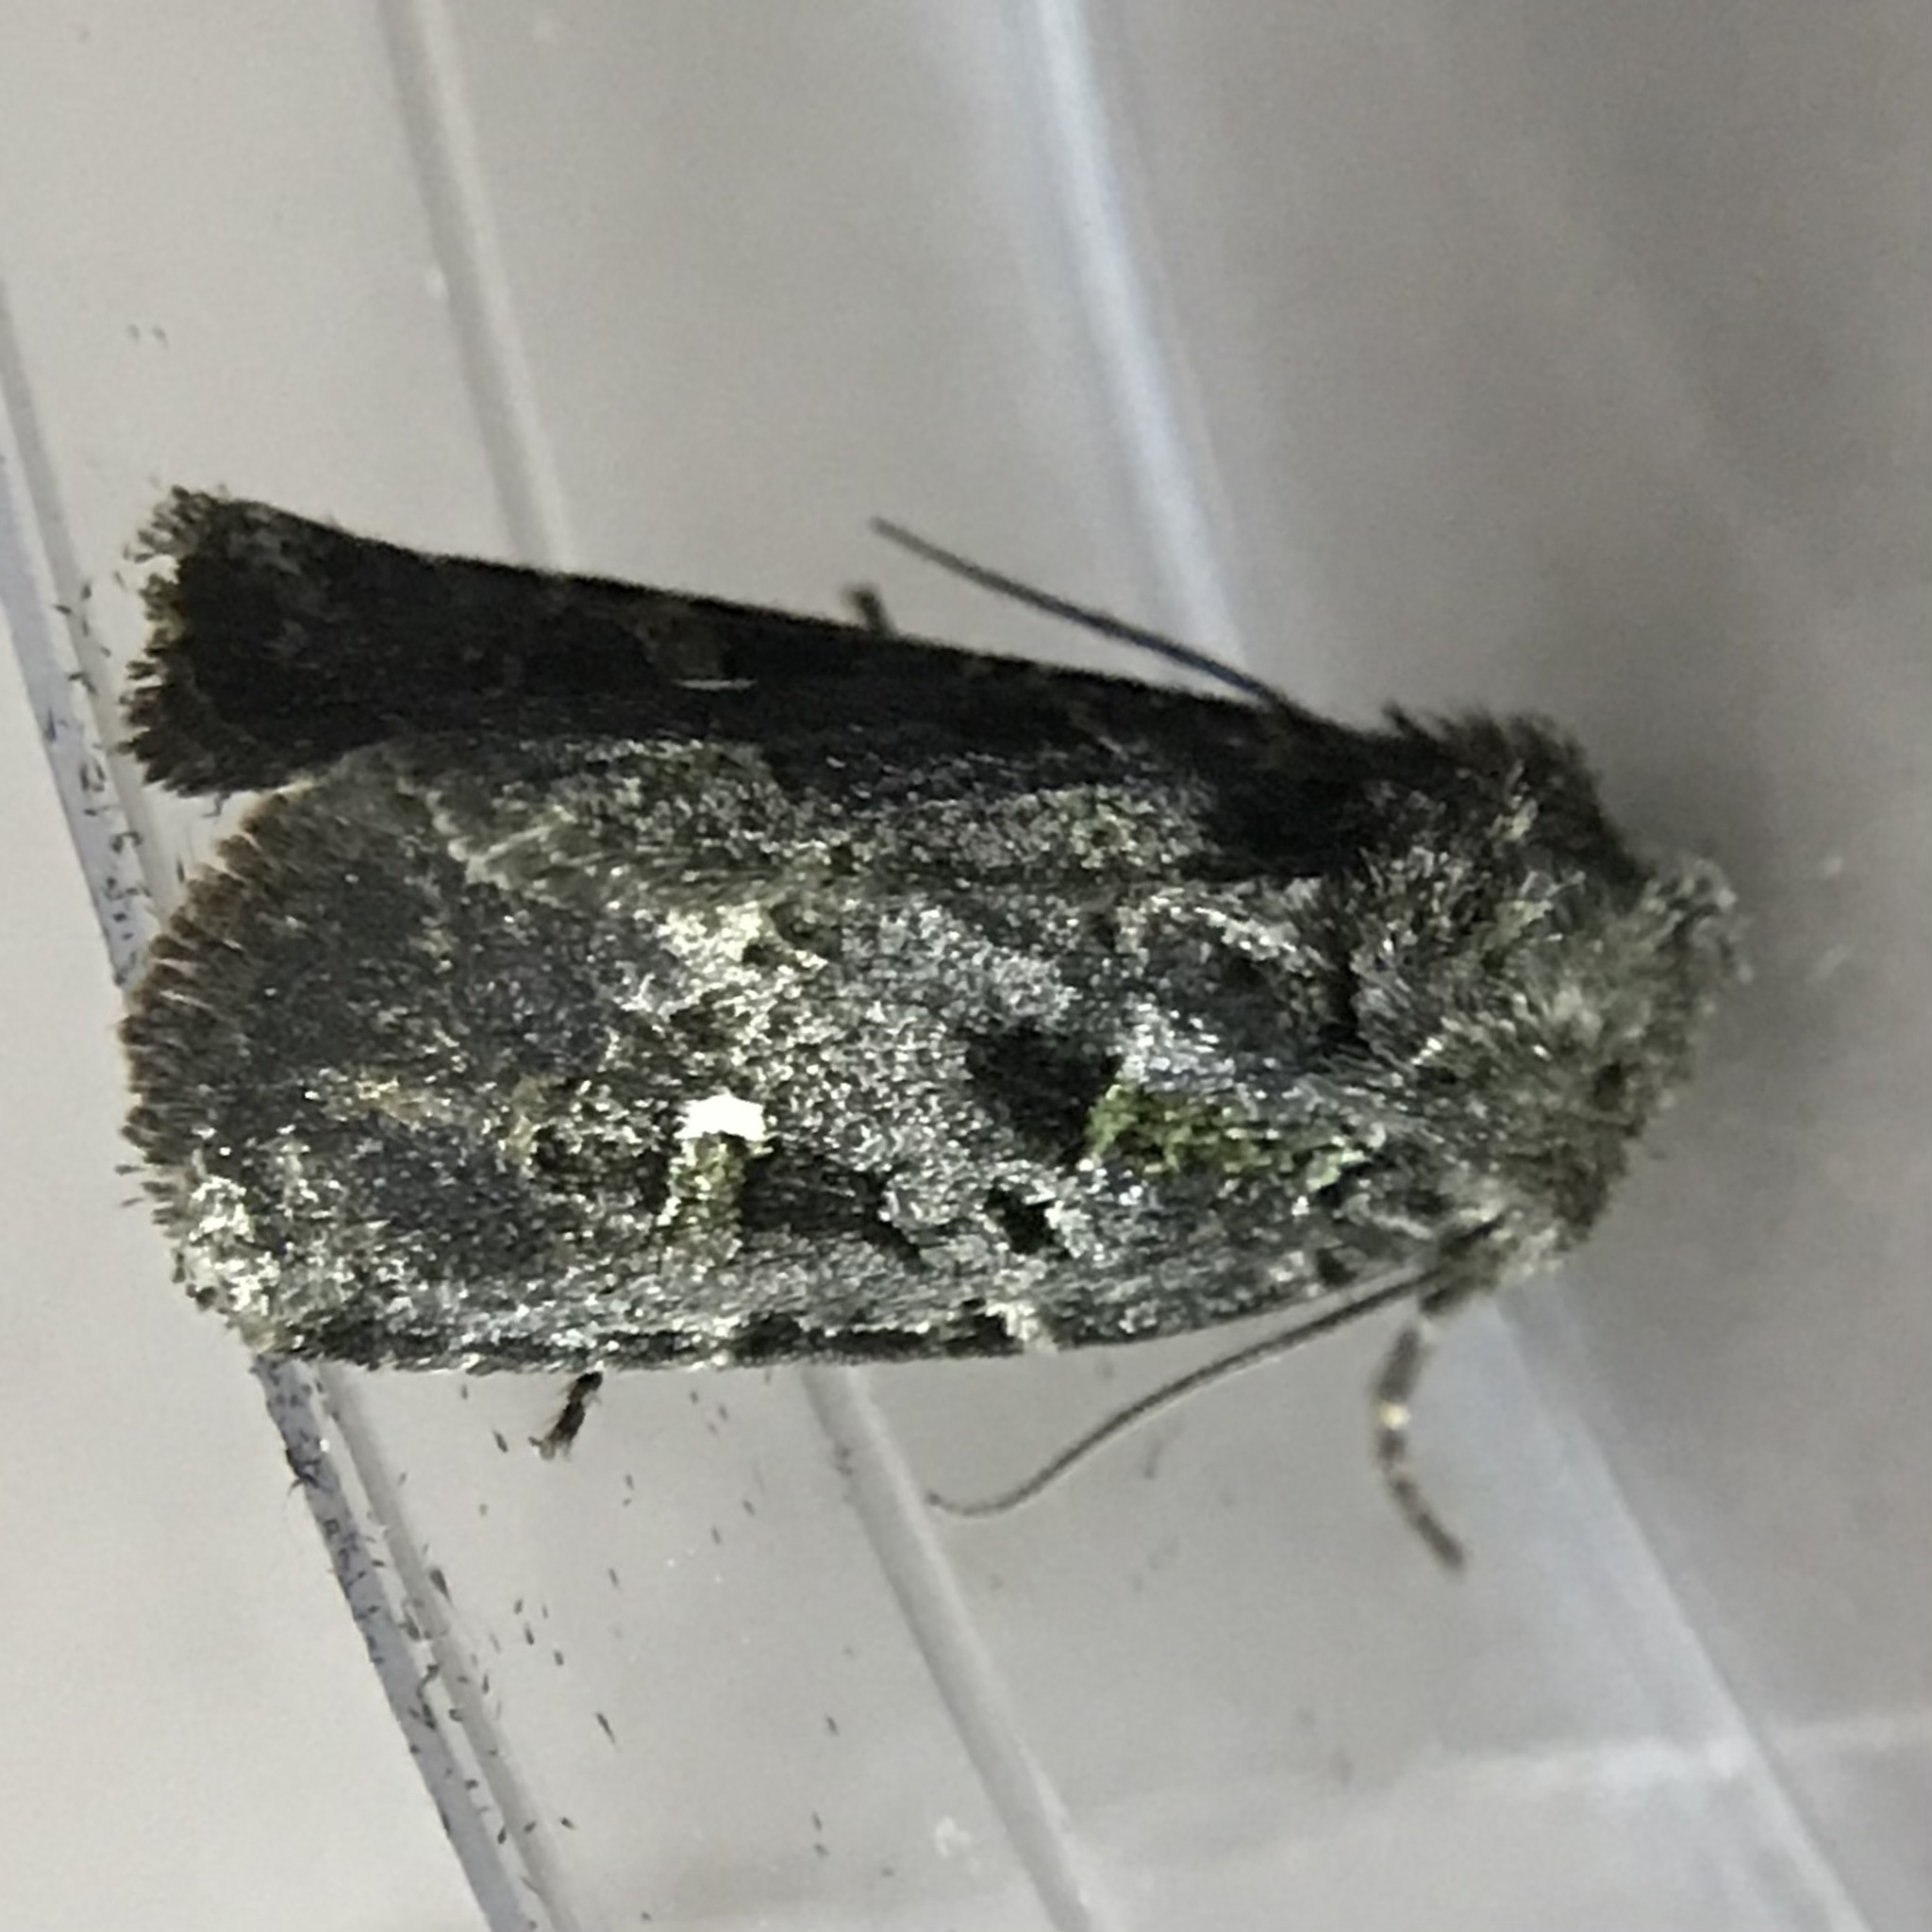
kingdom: Animalia
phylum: Arthropoda
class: Insecta
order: Lepidoptera
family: Noctuidae
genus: Lacinipolia
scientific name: Lacinipolia renigera
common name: Kidney-spotted minor
